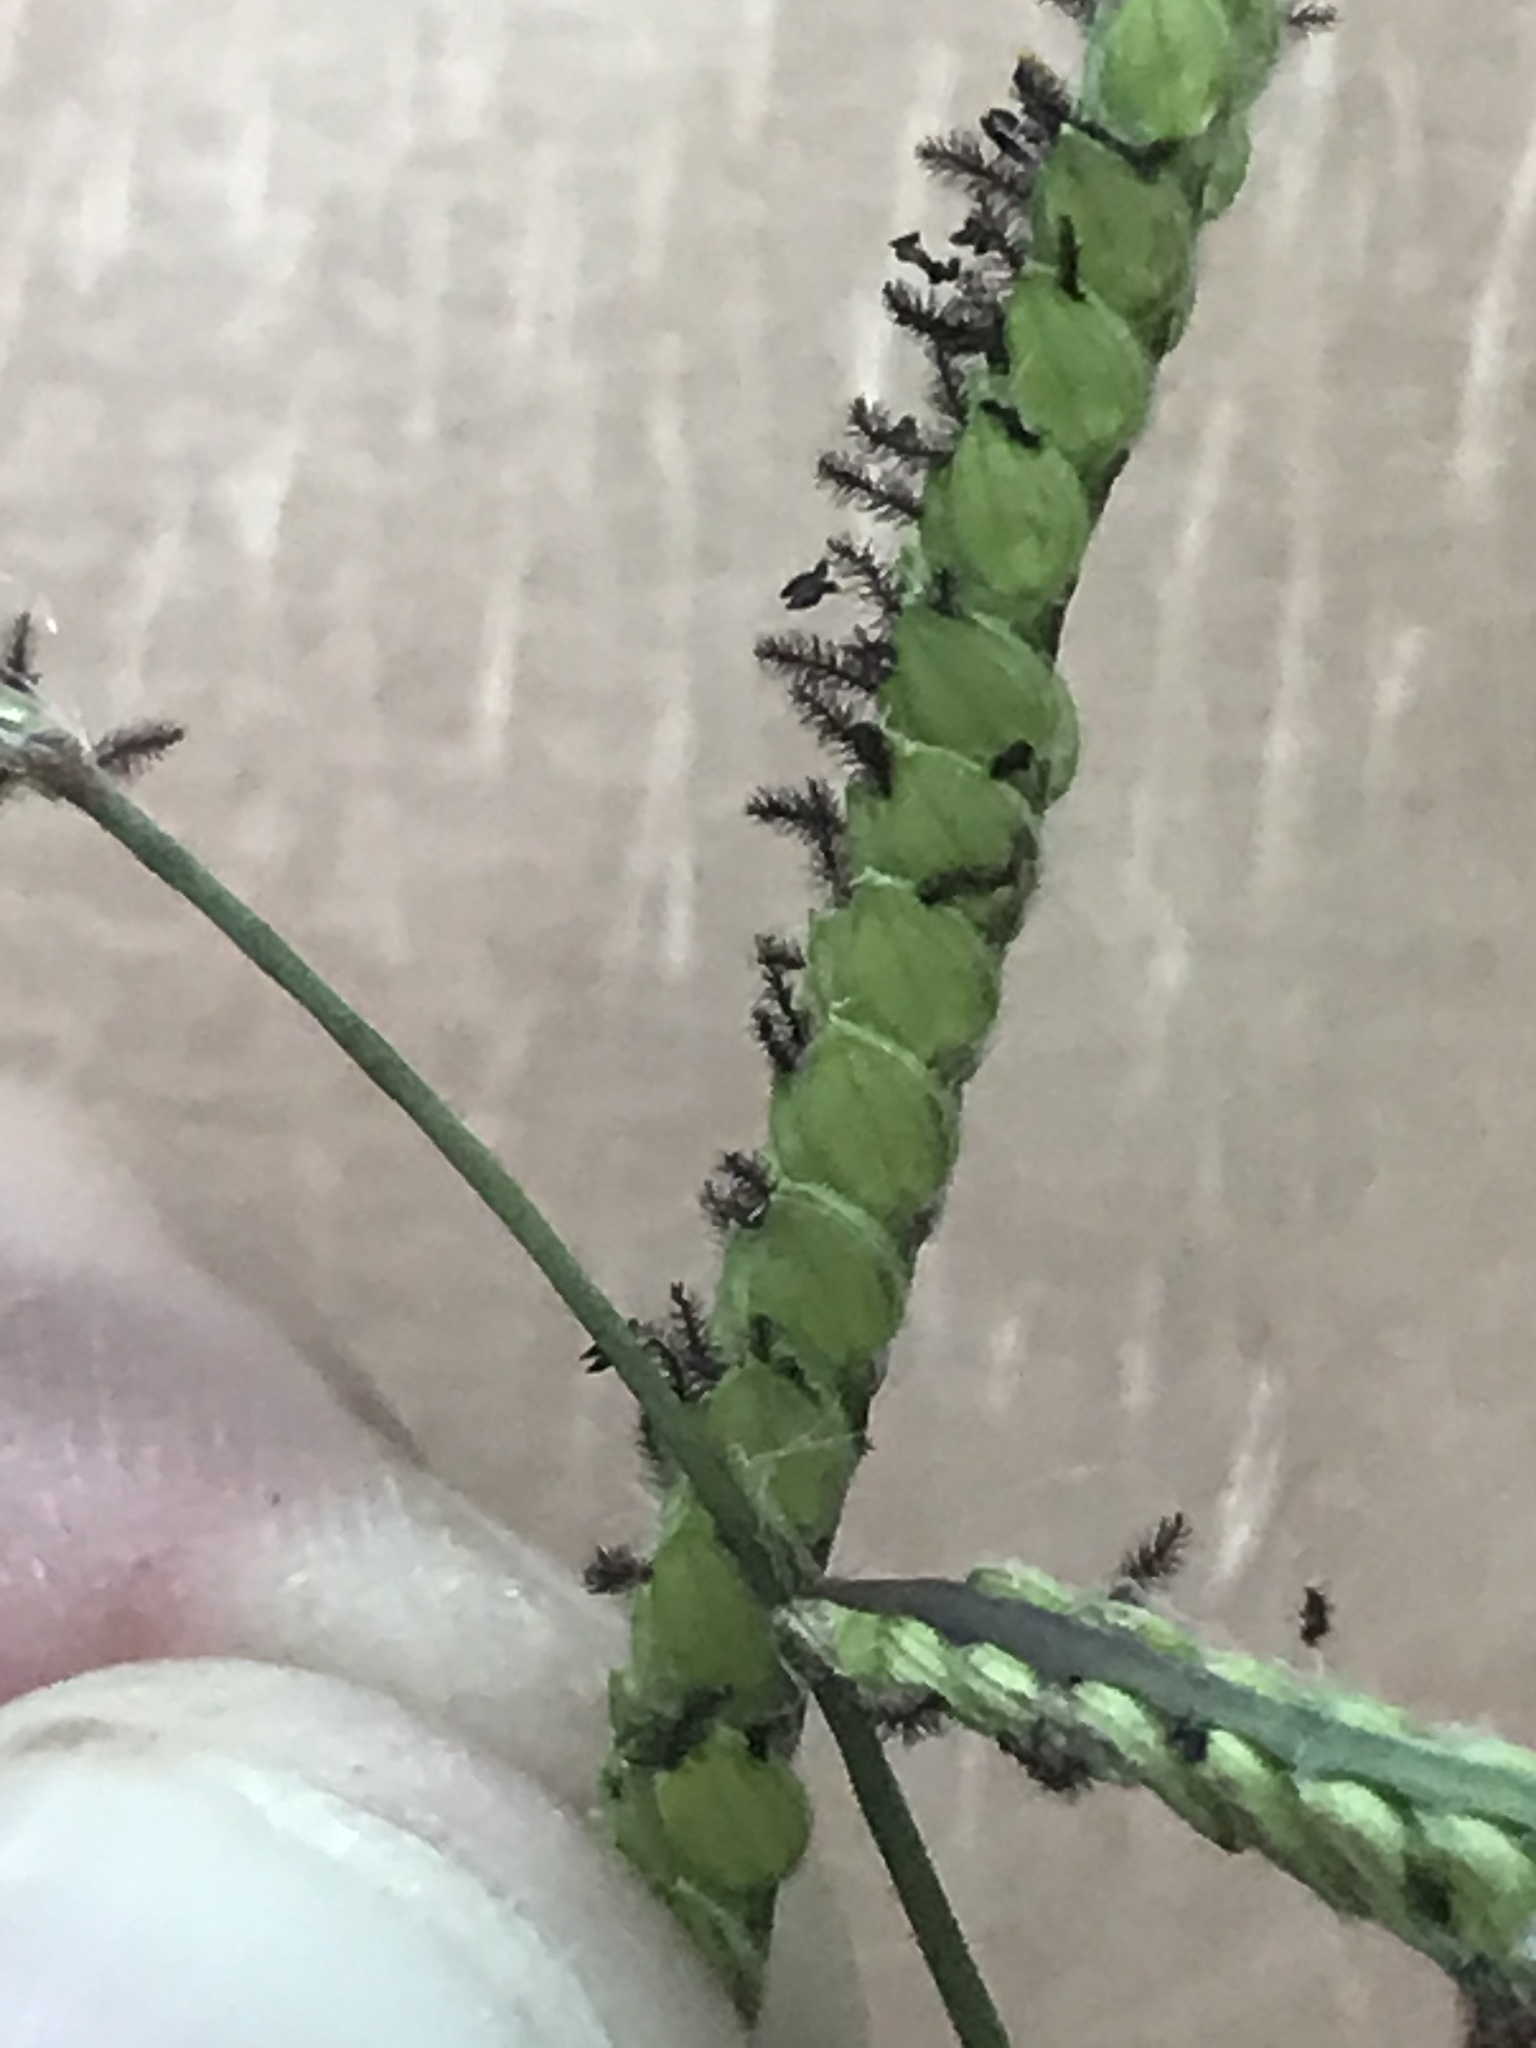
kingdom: Plantae
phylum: Tracheophyta
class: Liliopsida
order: Poales
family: Poaceae
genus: Paspalum
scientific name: Paspalum dilatatum
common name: Dallisgrass
